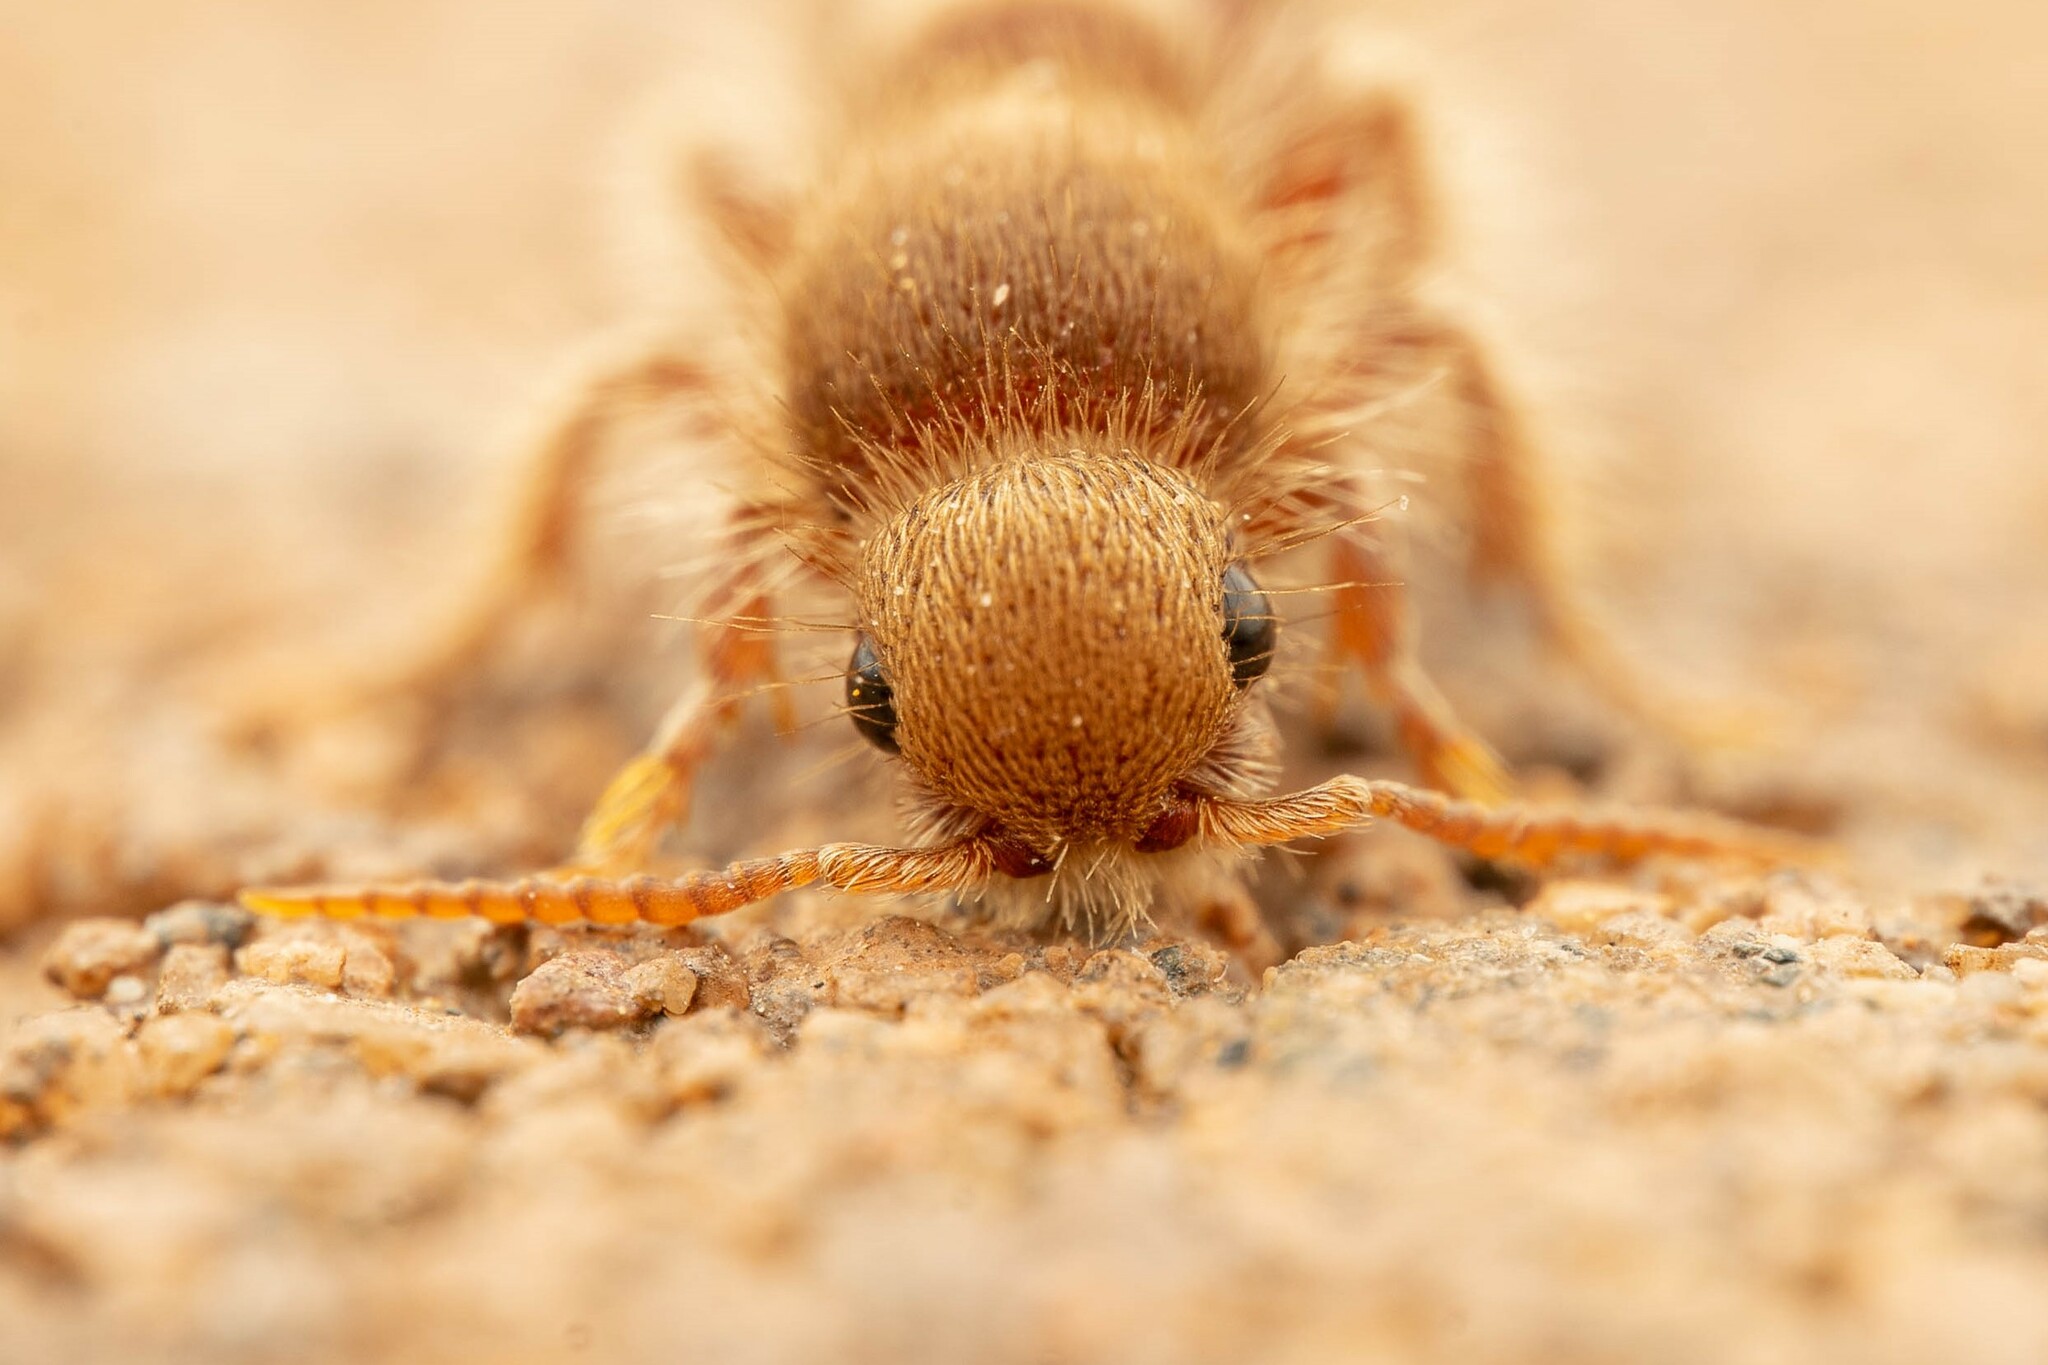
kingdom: Animalia
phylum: Arthropoda
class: Insecta
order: Hymenoptera
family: Mutillidae
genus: Odontophotopsis
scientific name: Odontophotopsis
